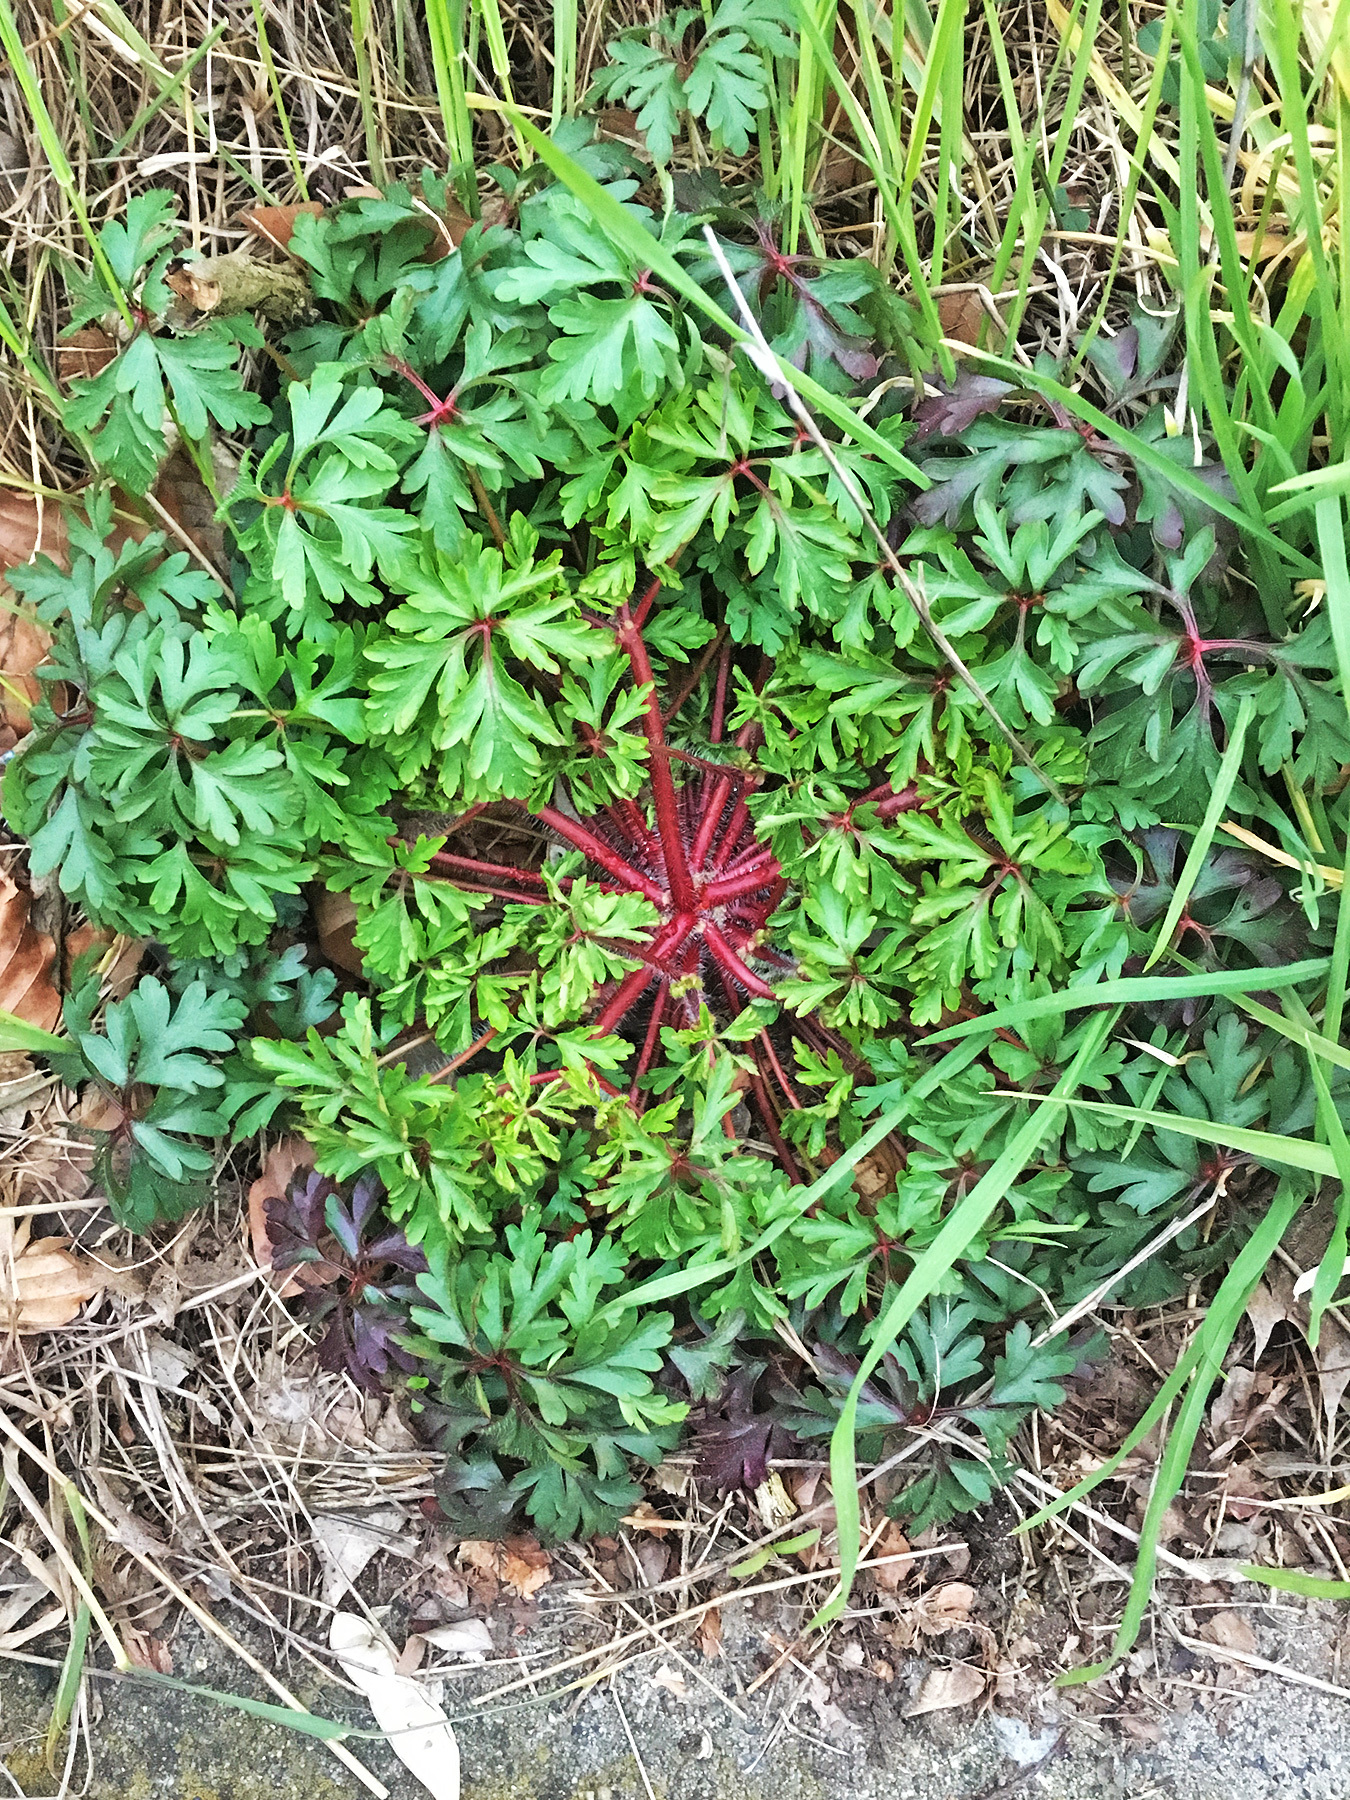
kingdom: Plantae
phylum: Tracheophyta
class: Magnoliopsida
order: Geraniales
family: Geraniaceae
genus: Geranium
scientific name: Geranium robertianum
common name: Herb-robert
